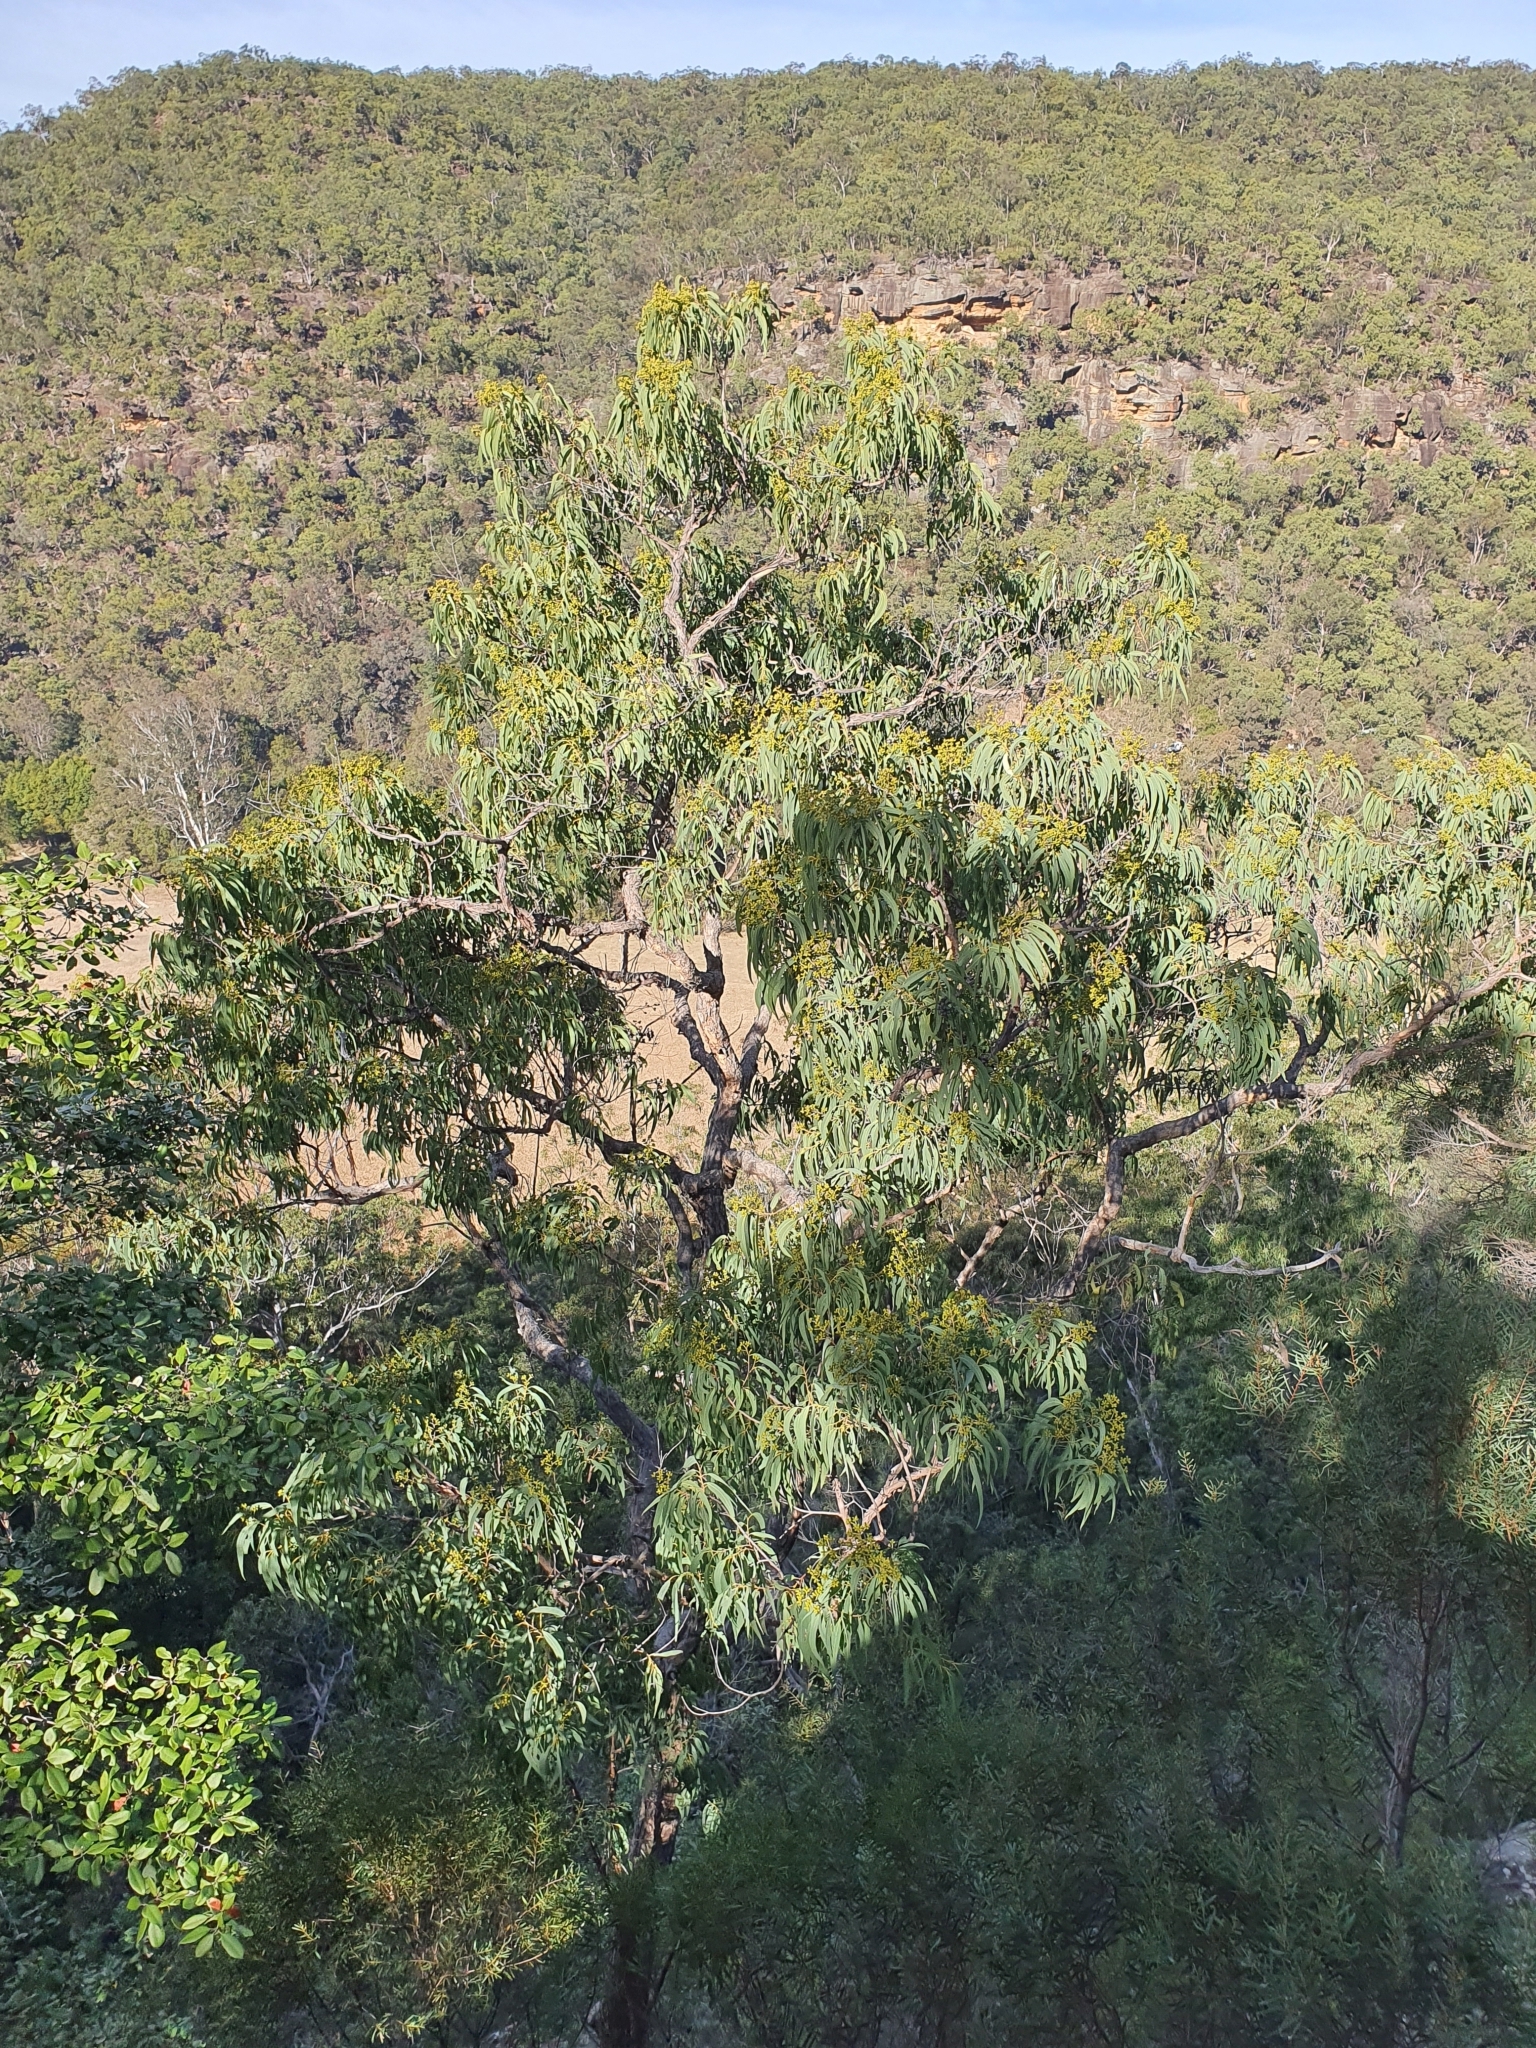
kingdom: Plantae
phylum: Tracheophyta
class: Magnoliopsida
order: Myrtales
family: Myrtaceae
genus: Corymbia
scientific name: Corymbia eximia
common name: Yellow bloodwood
